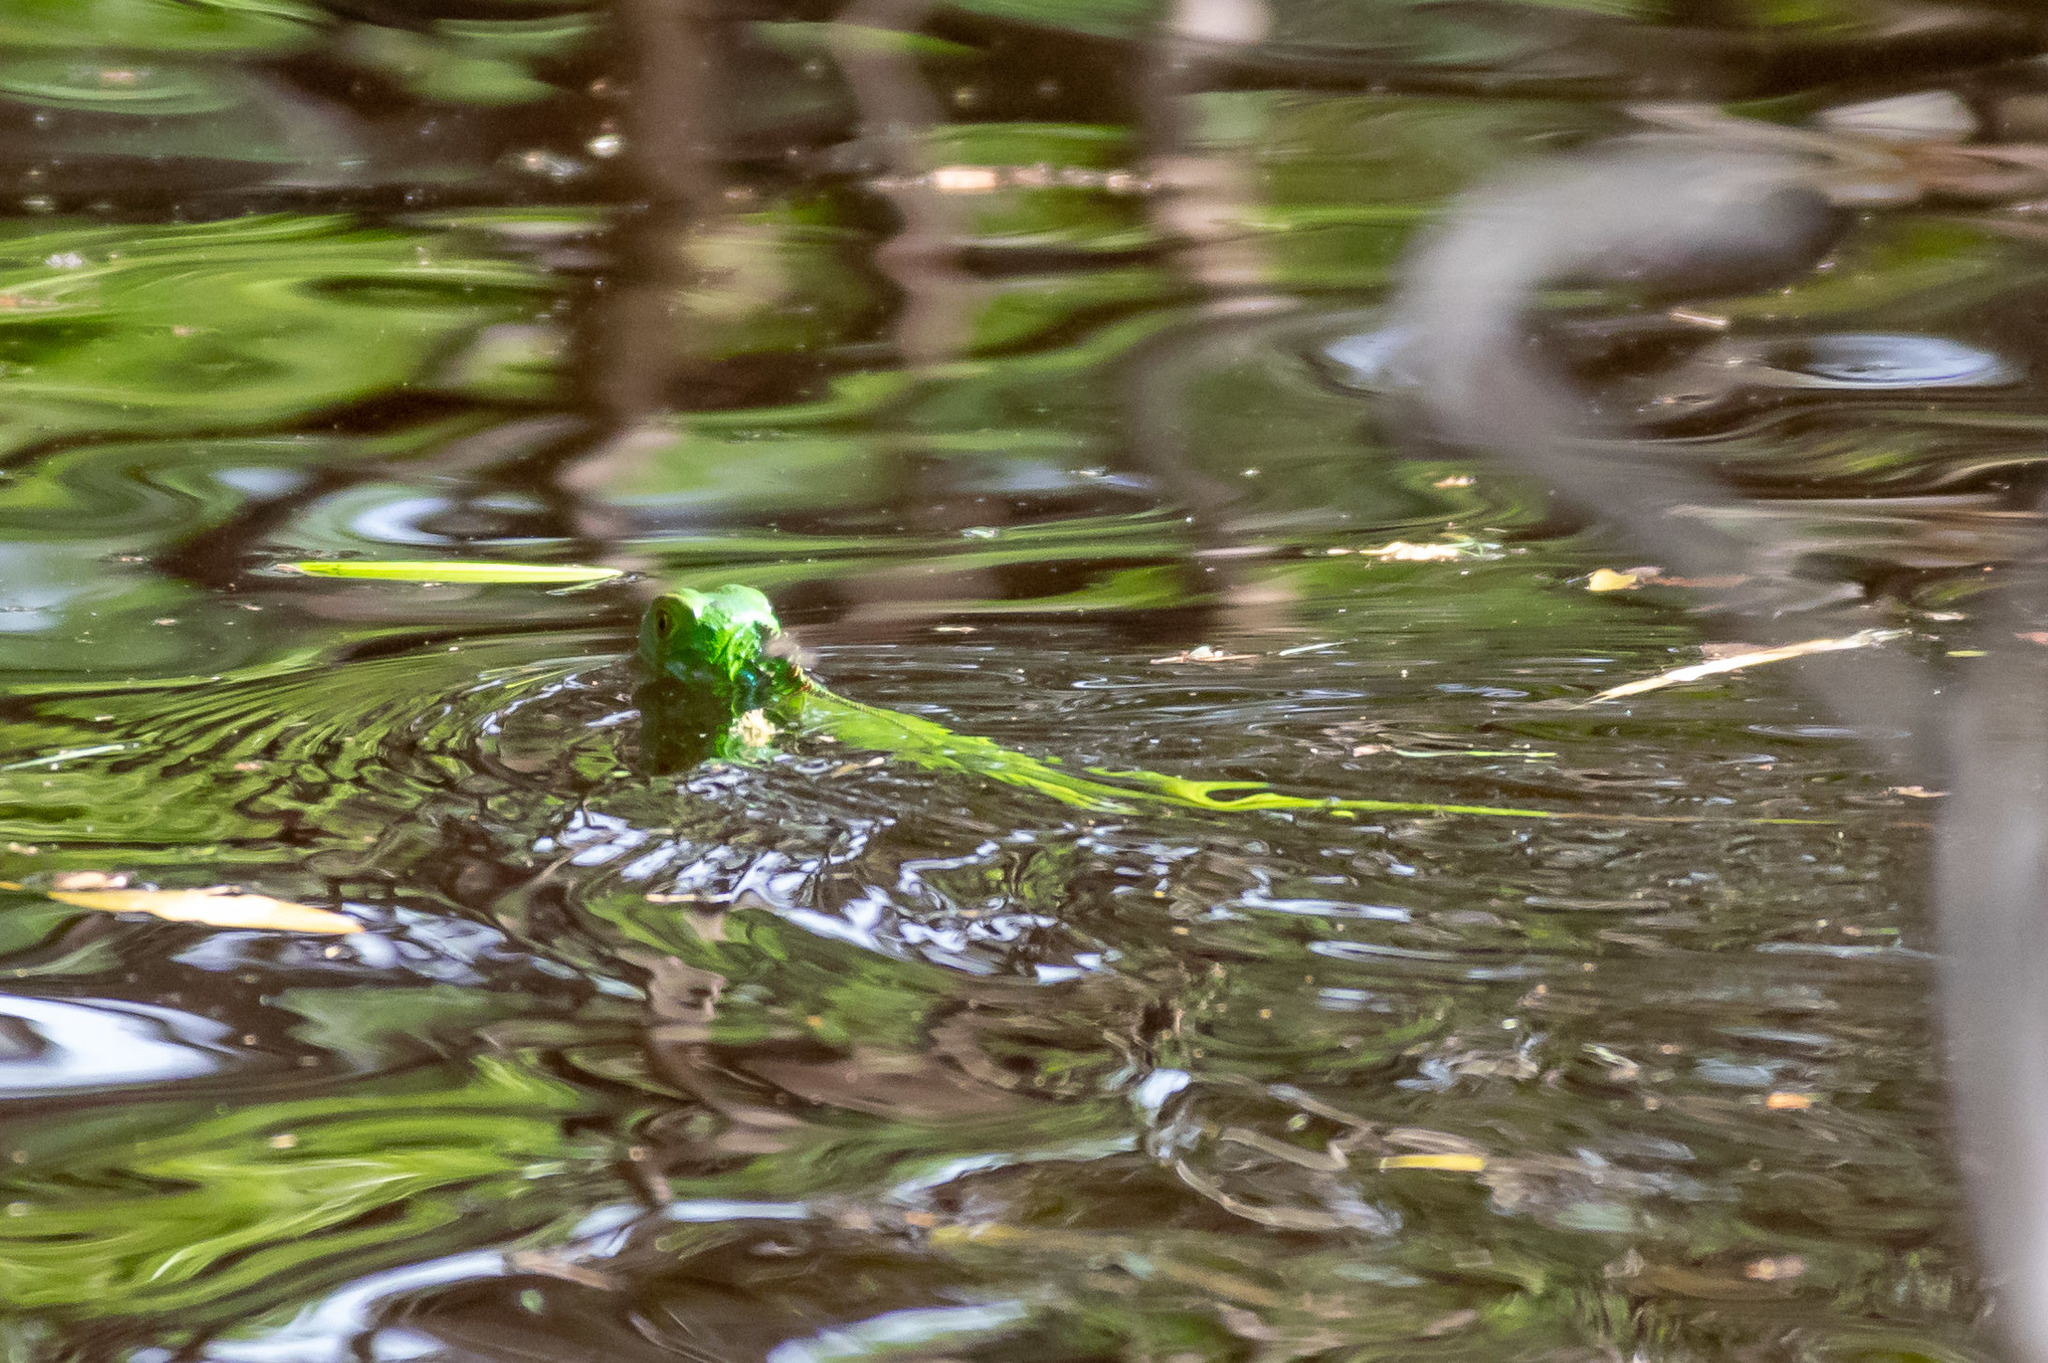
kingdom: Animalia
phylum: Chordata
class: Squamata
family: Iguanidae
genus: Iguana
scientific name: Iguana iguana
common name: Green iguana
